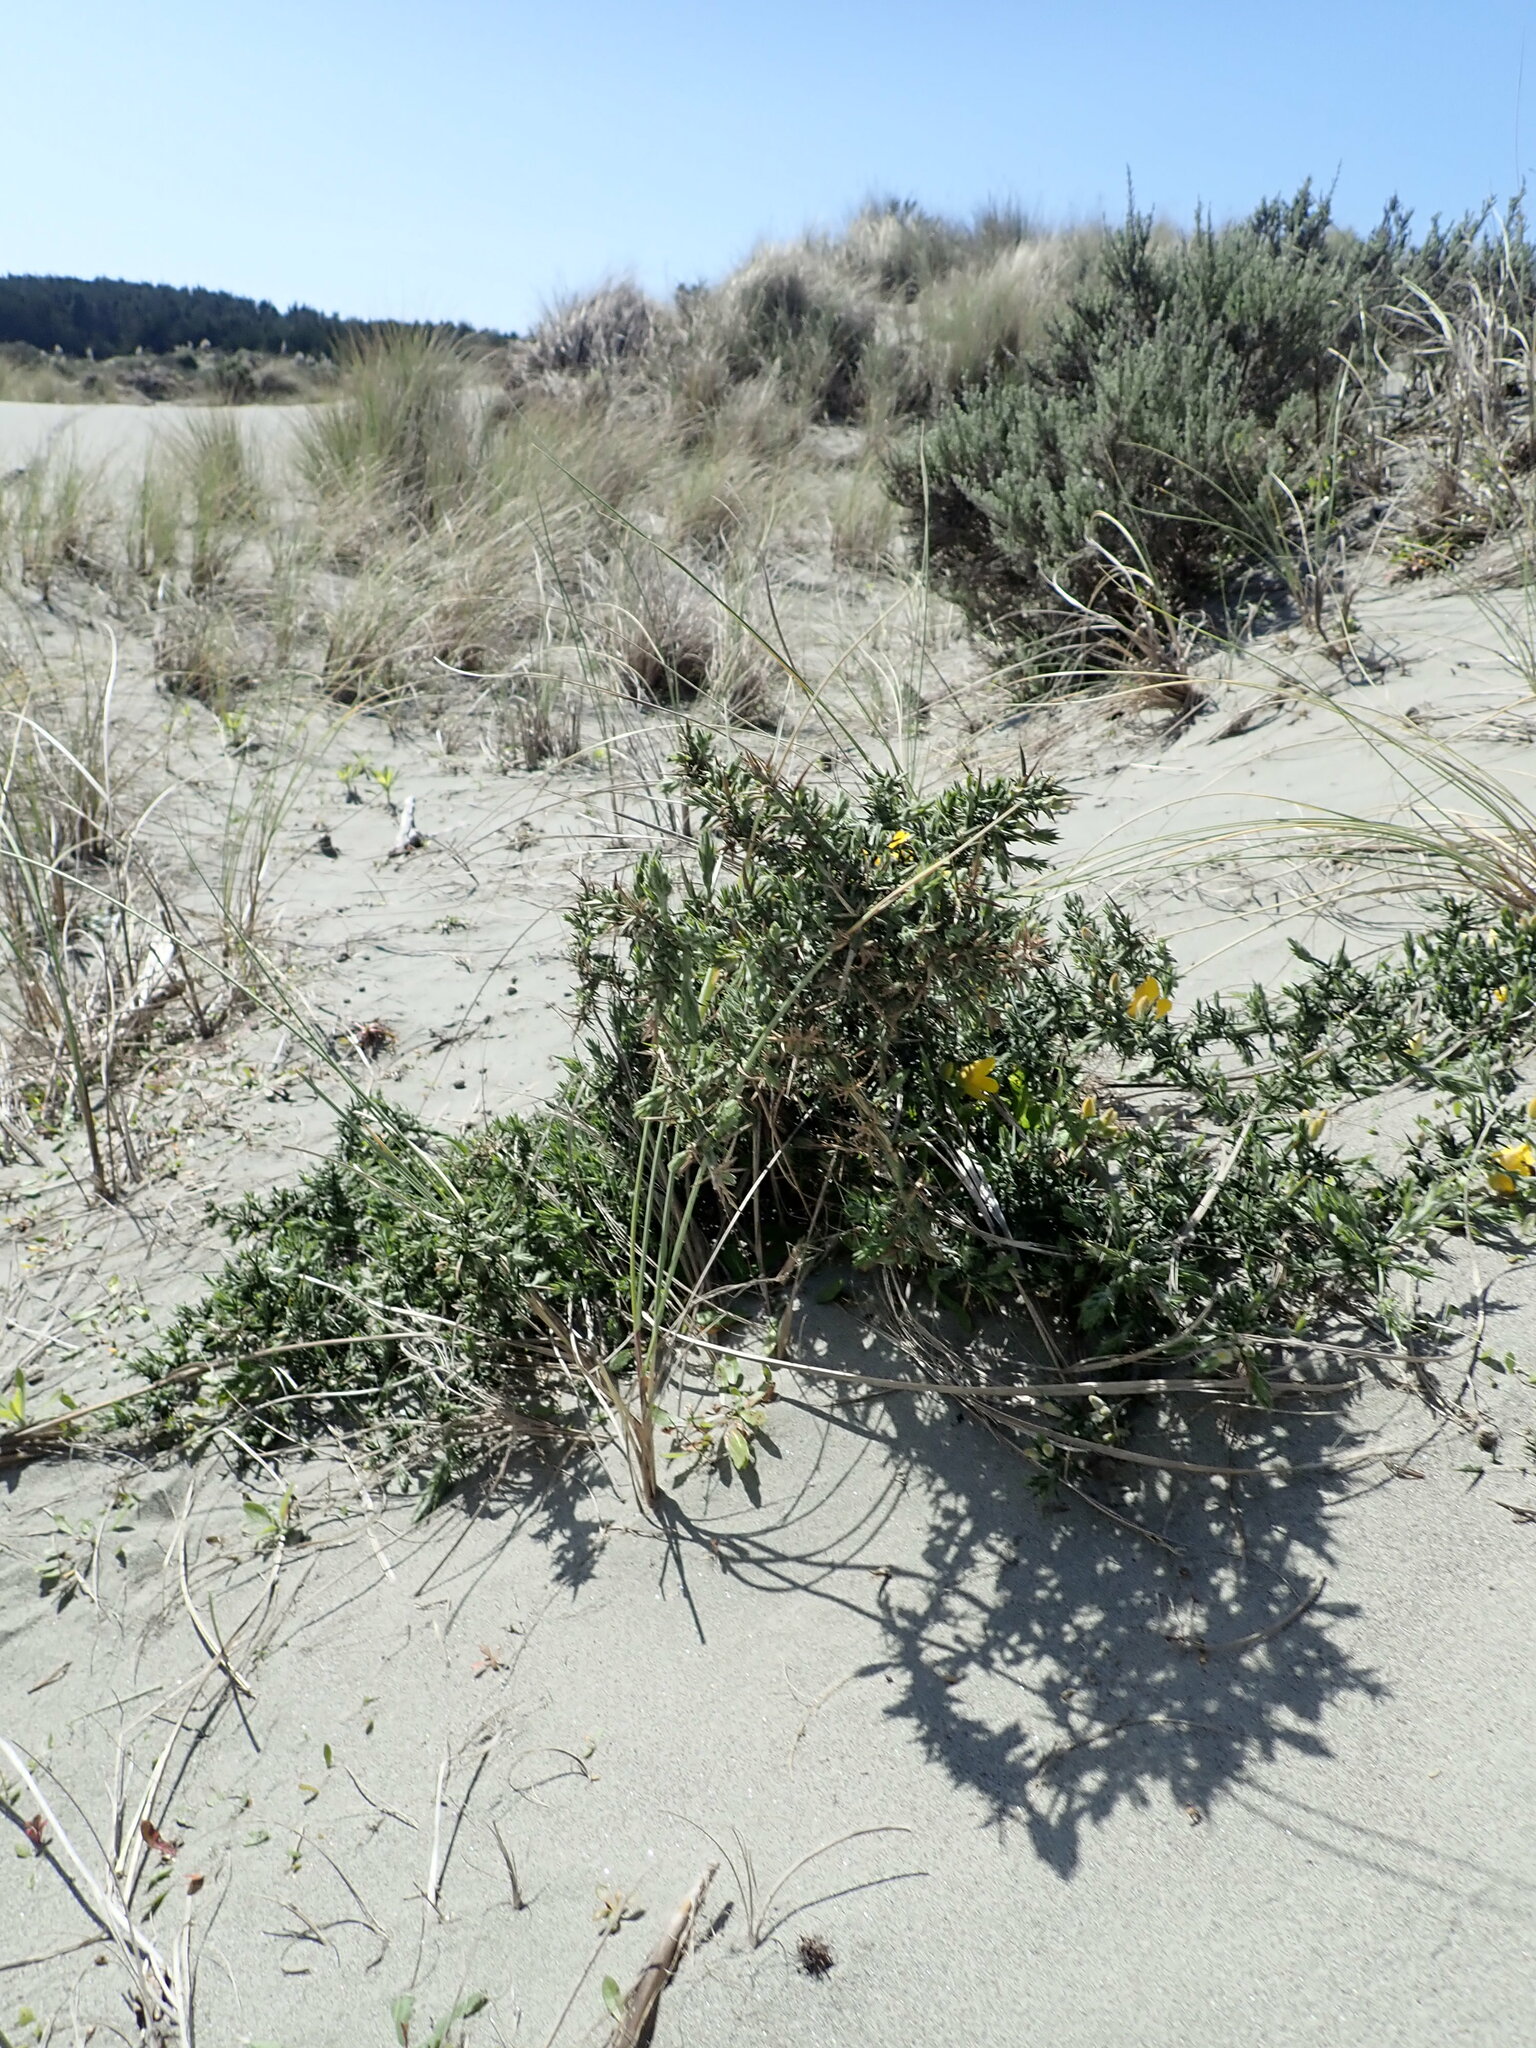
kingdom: Plantae
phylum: Tracheophyta
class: Magnoliopsida
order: Fabales
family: Fabaceae
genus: Ulex
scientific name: Ulex europaeus
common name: Common gorse
